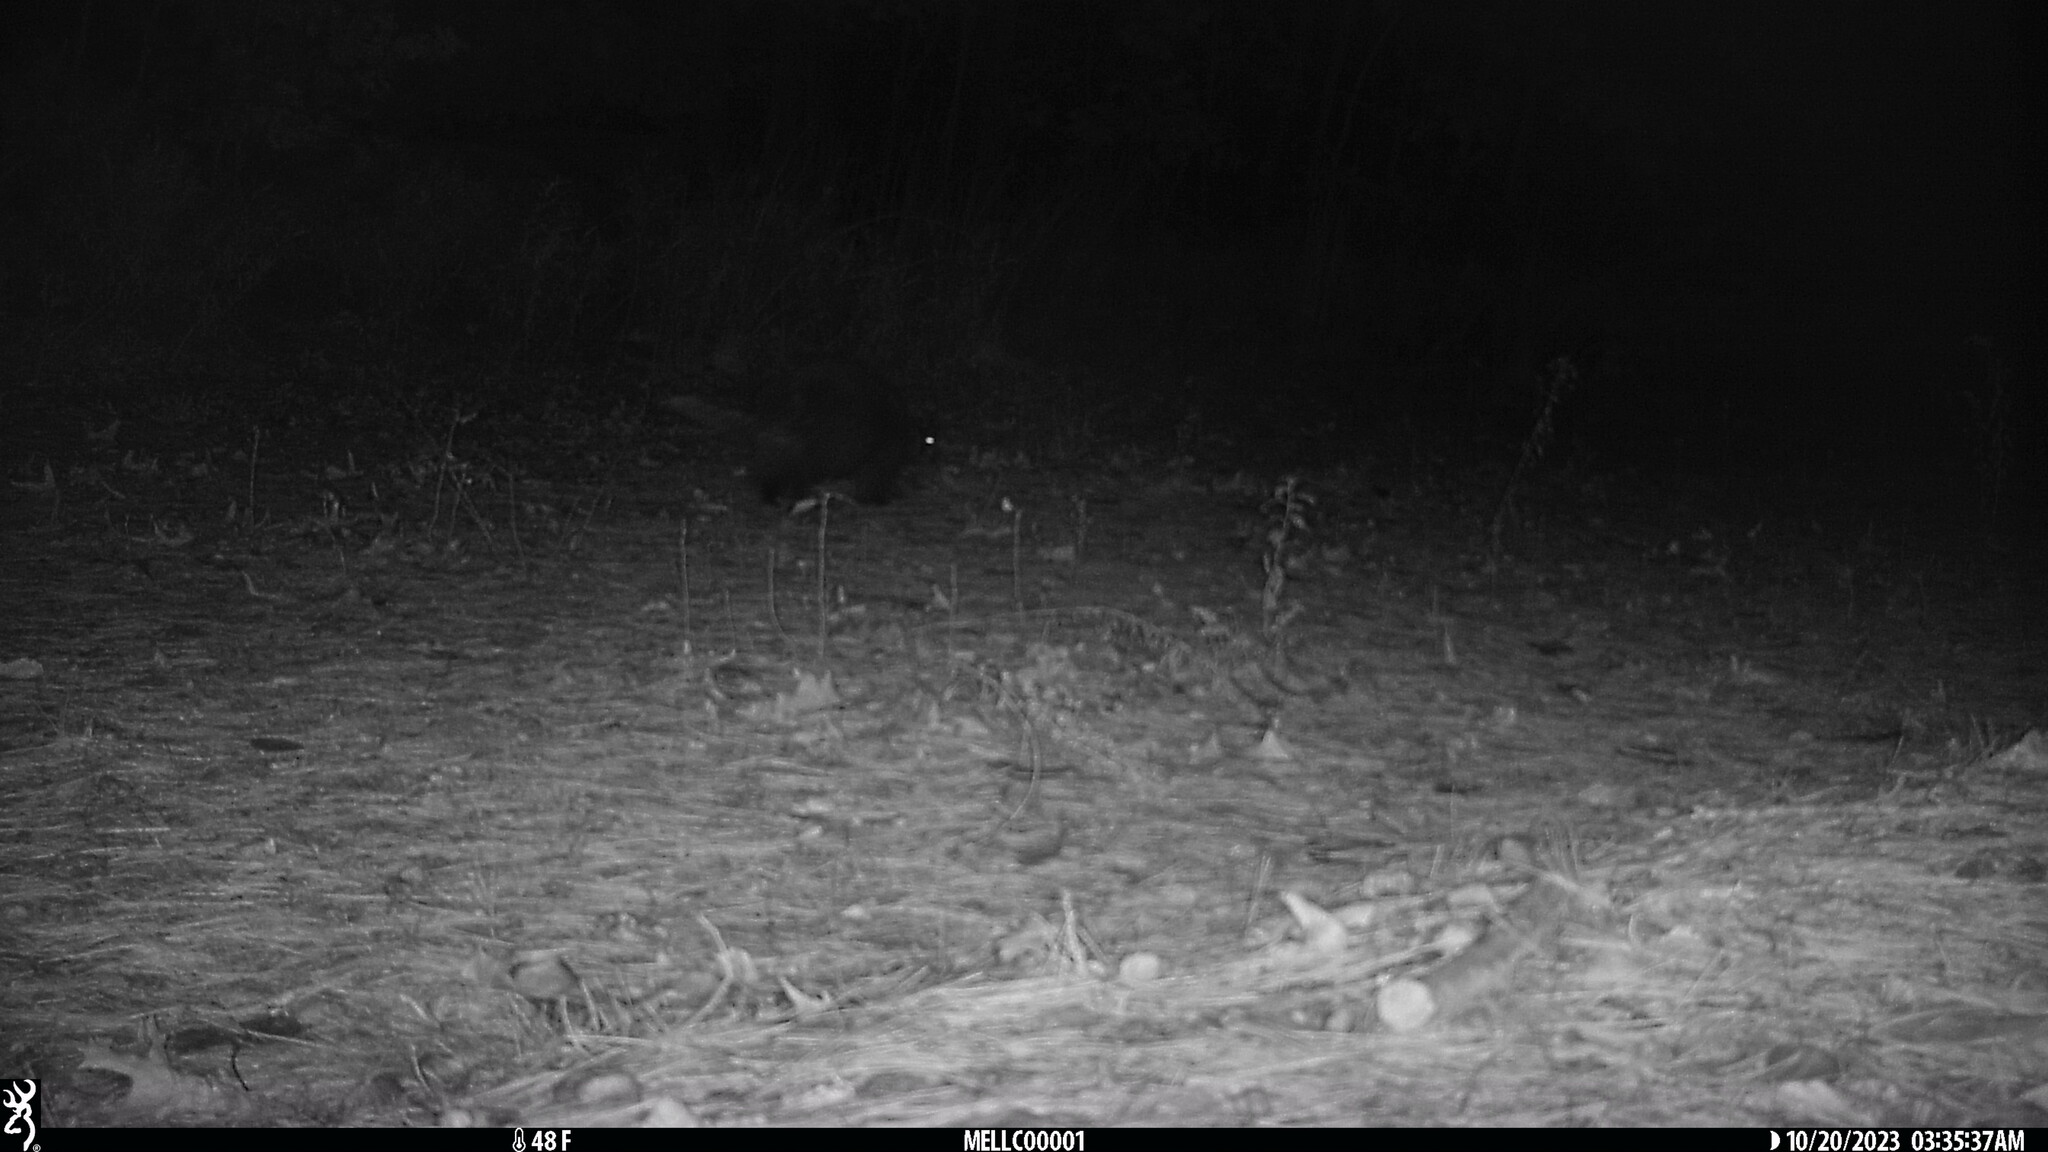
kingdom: Animalia
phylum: Chordata
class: Mammalia
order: Rodentia
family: Erethizontidae
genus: Erethizon
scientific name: Erethizon dorsatus
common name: North american porcupine
